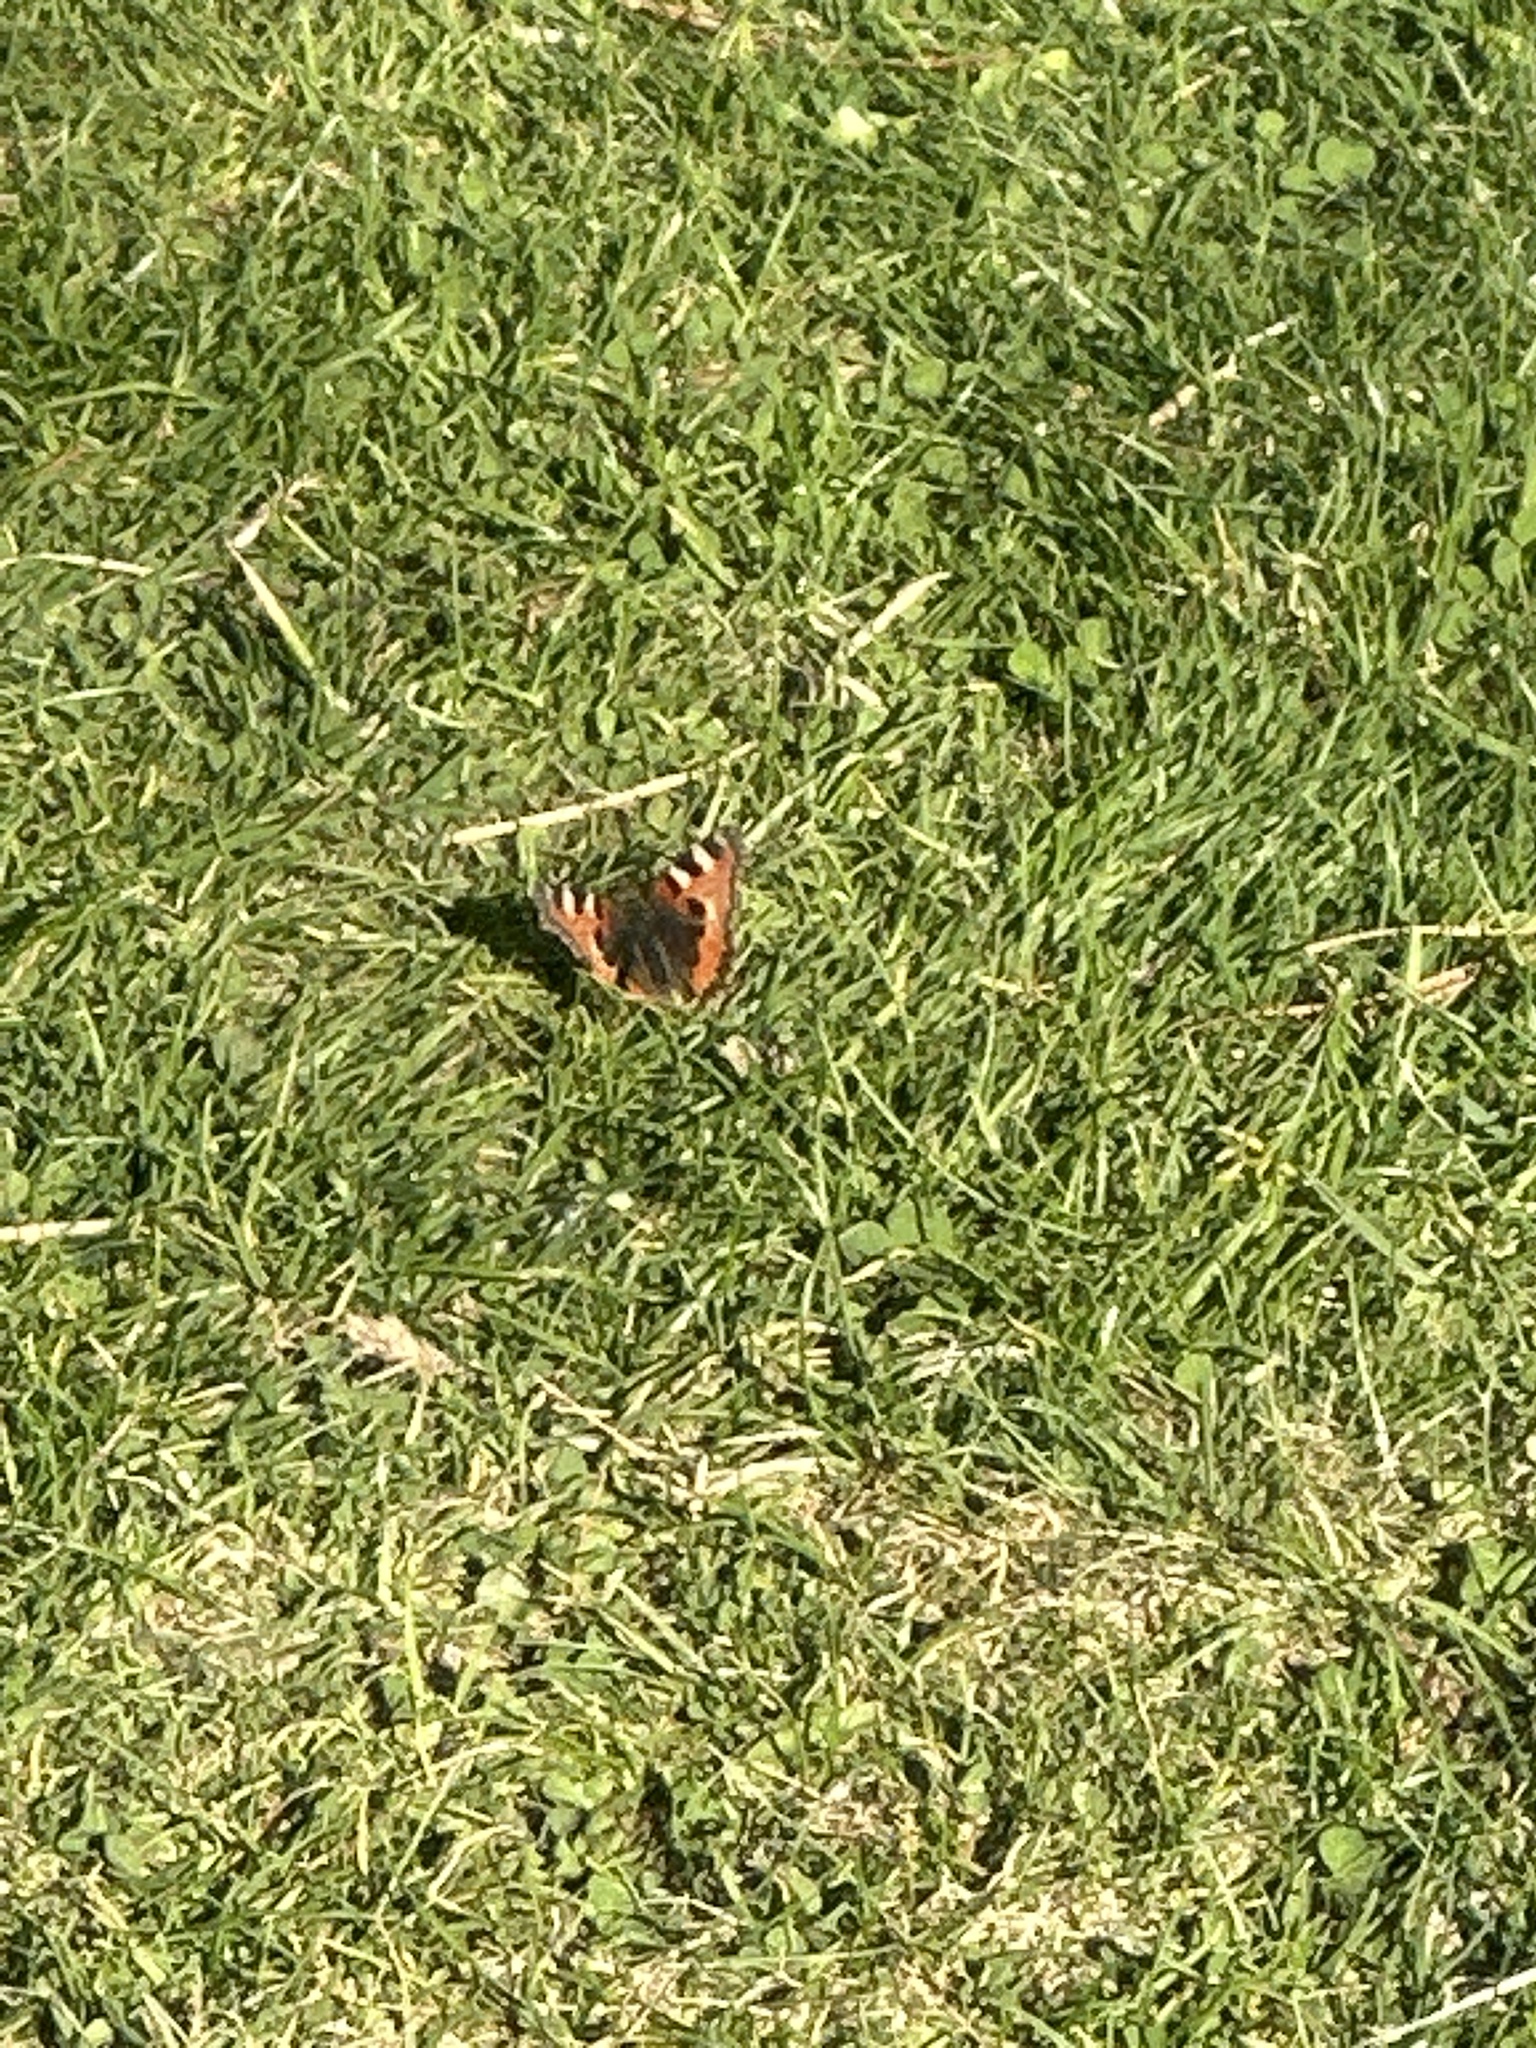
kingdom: Animalia
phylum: Arthropoda
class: Insecta
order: Lepidoptera
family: Nymphalidae
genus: Aglais
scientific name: Aglais urticae
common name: Small tortoiseshell
